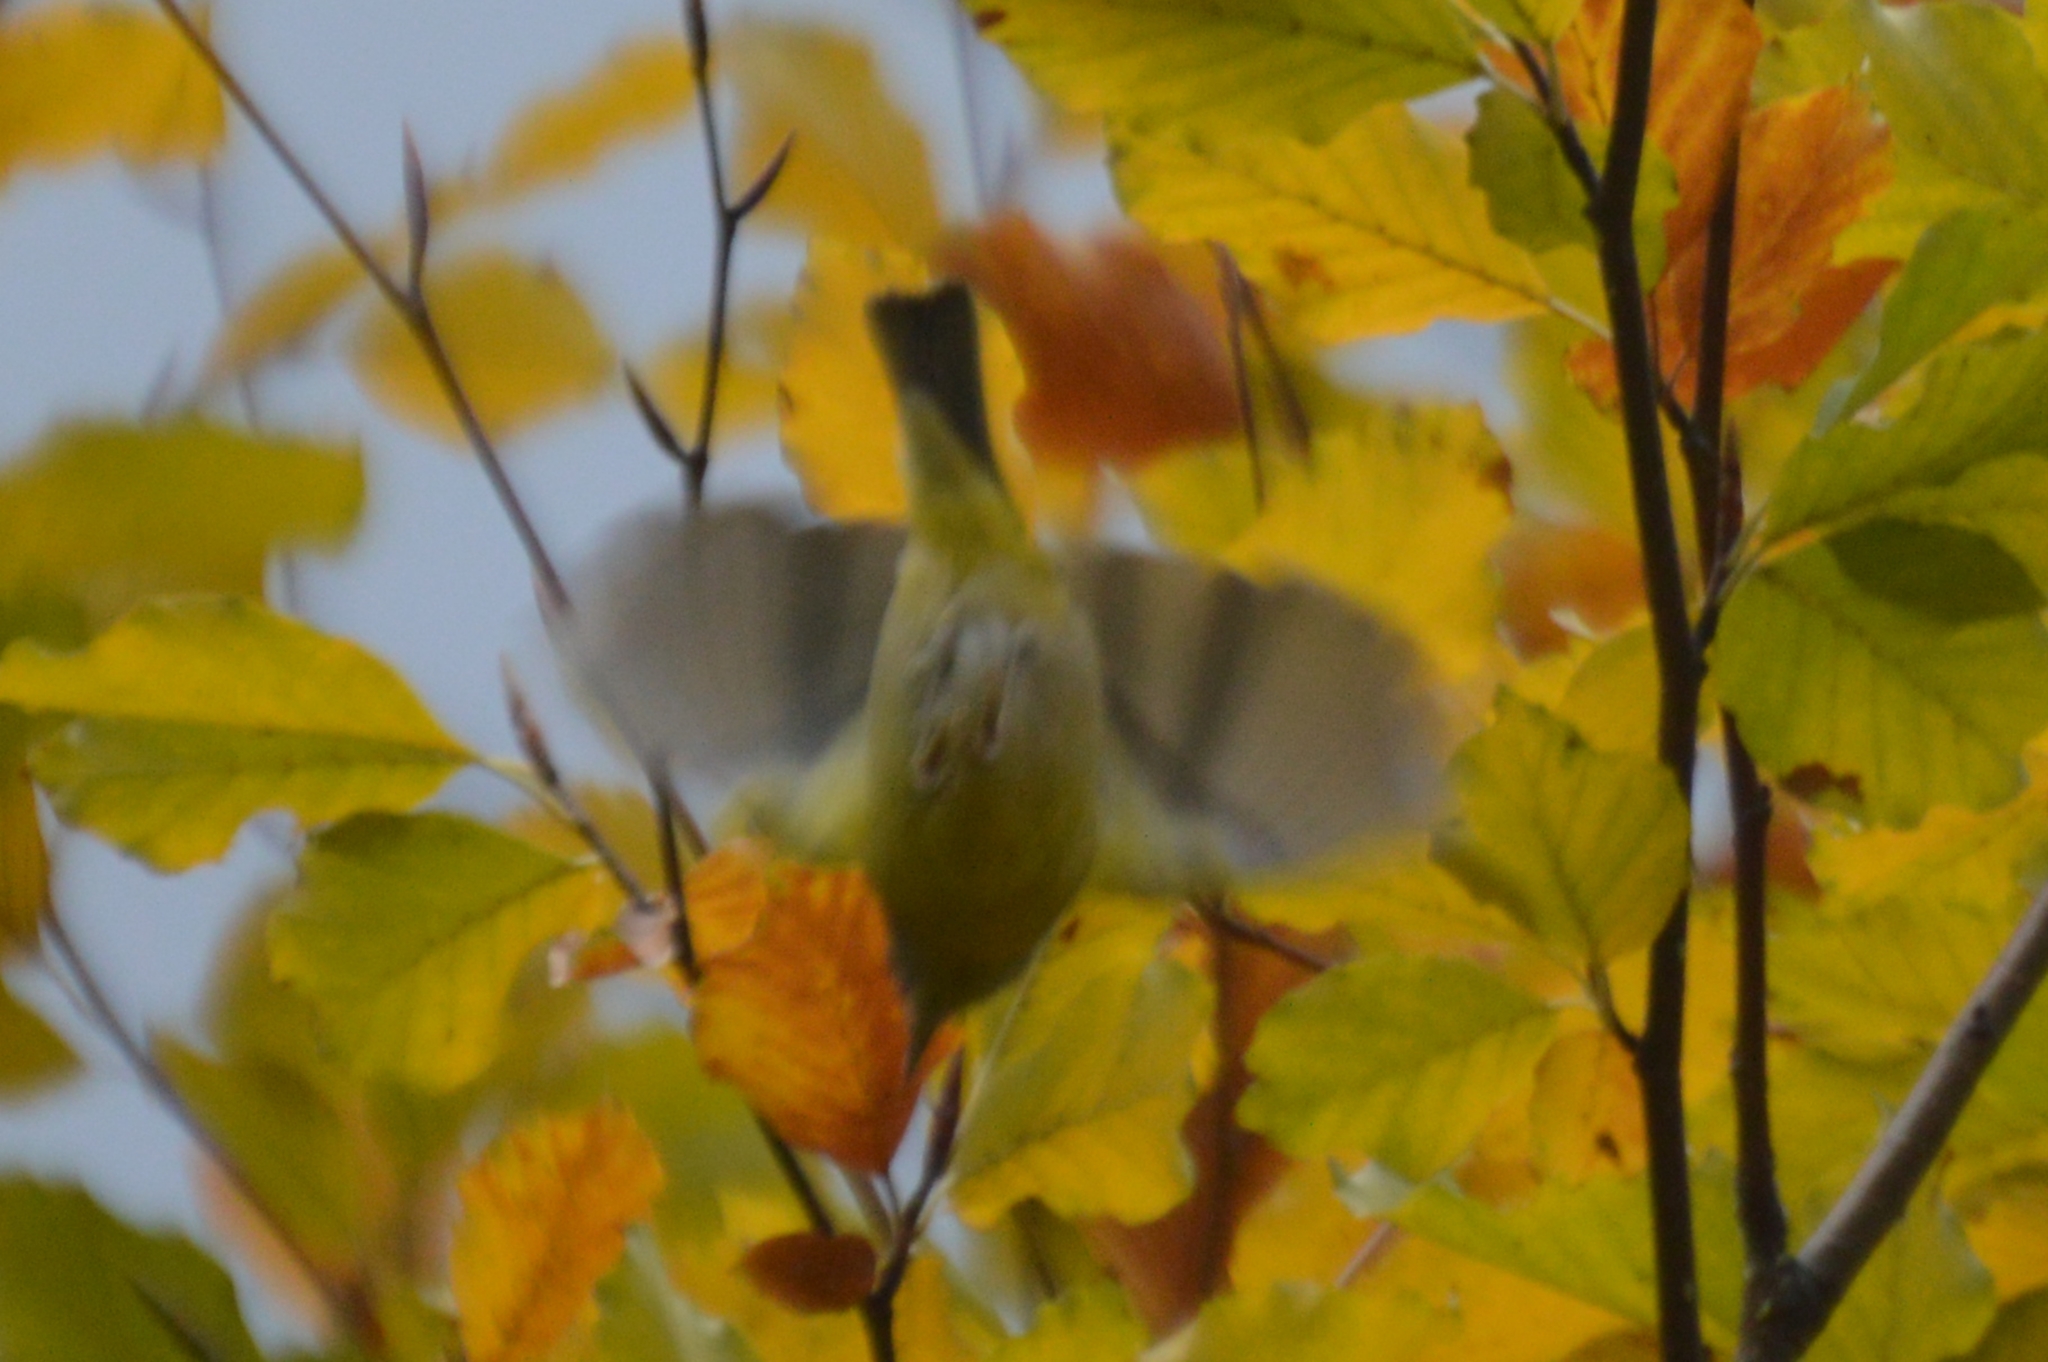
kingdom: Animalia
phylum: Chordata
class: Aves
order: Passeriformes
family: Parulidae
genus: Leiothlypis
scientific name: Leiothlypis ruficapilla
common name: Nashville warbler
